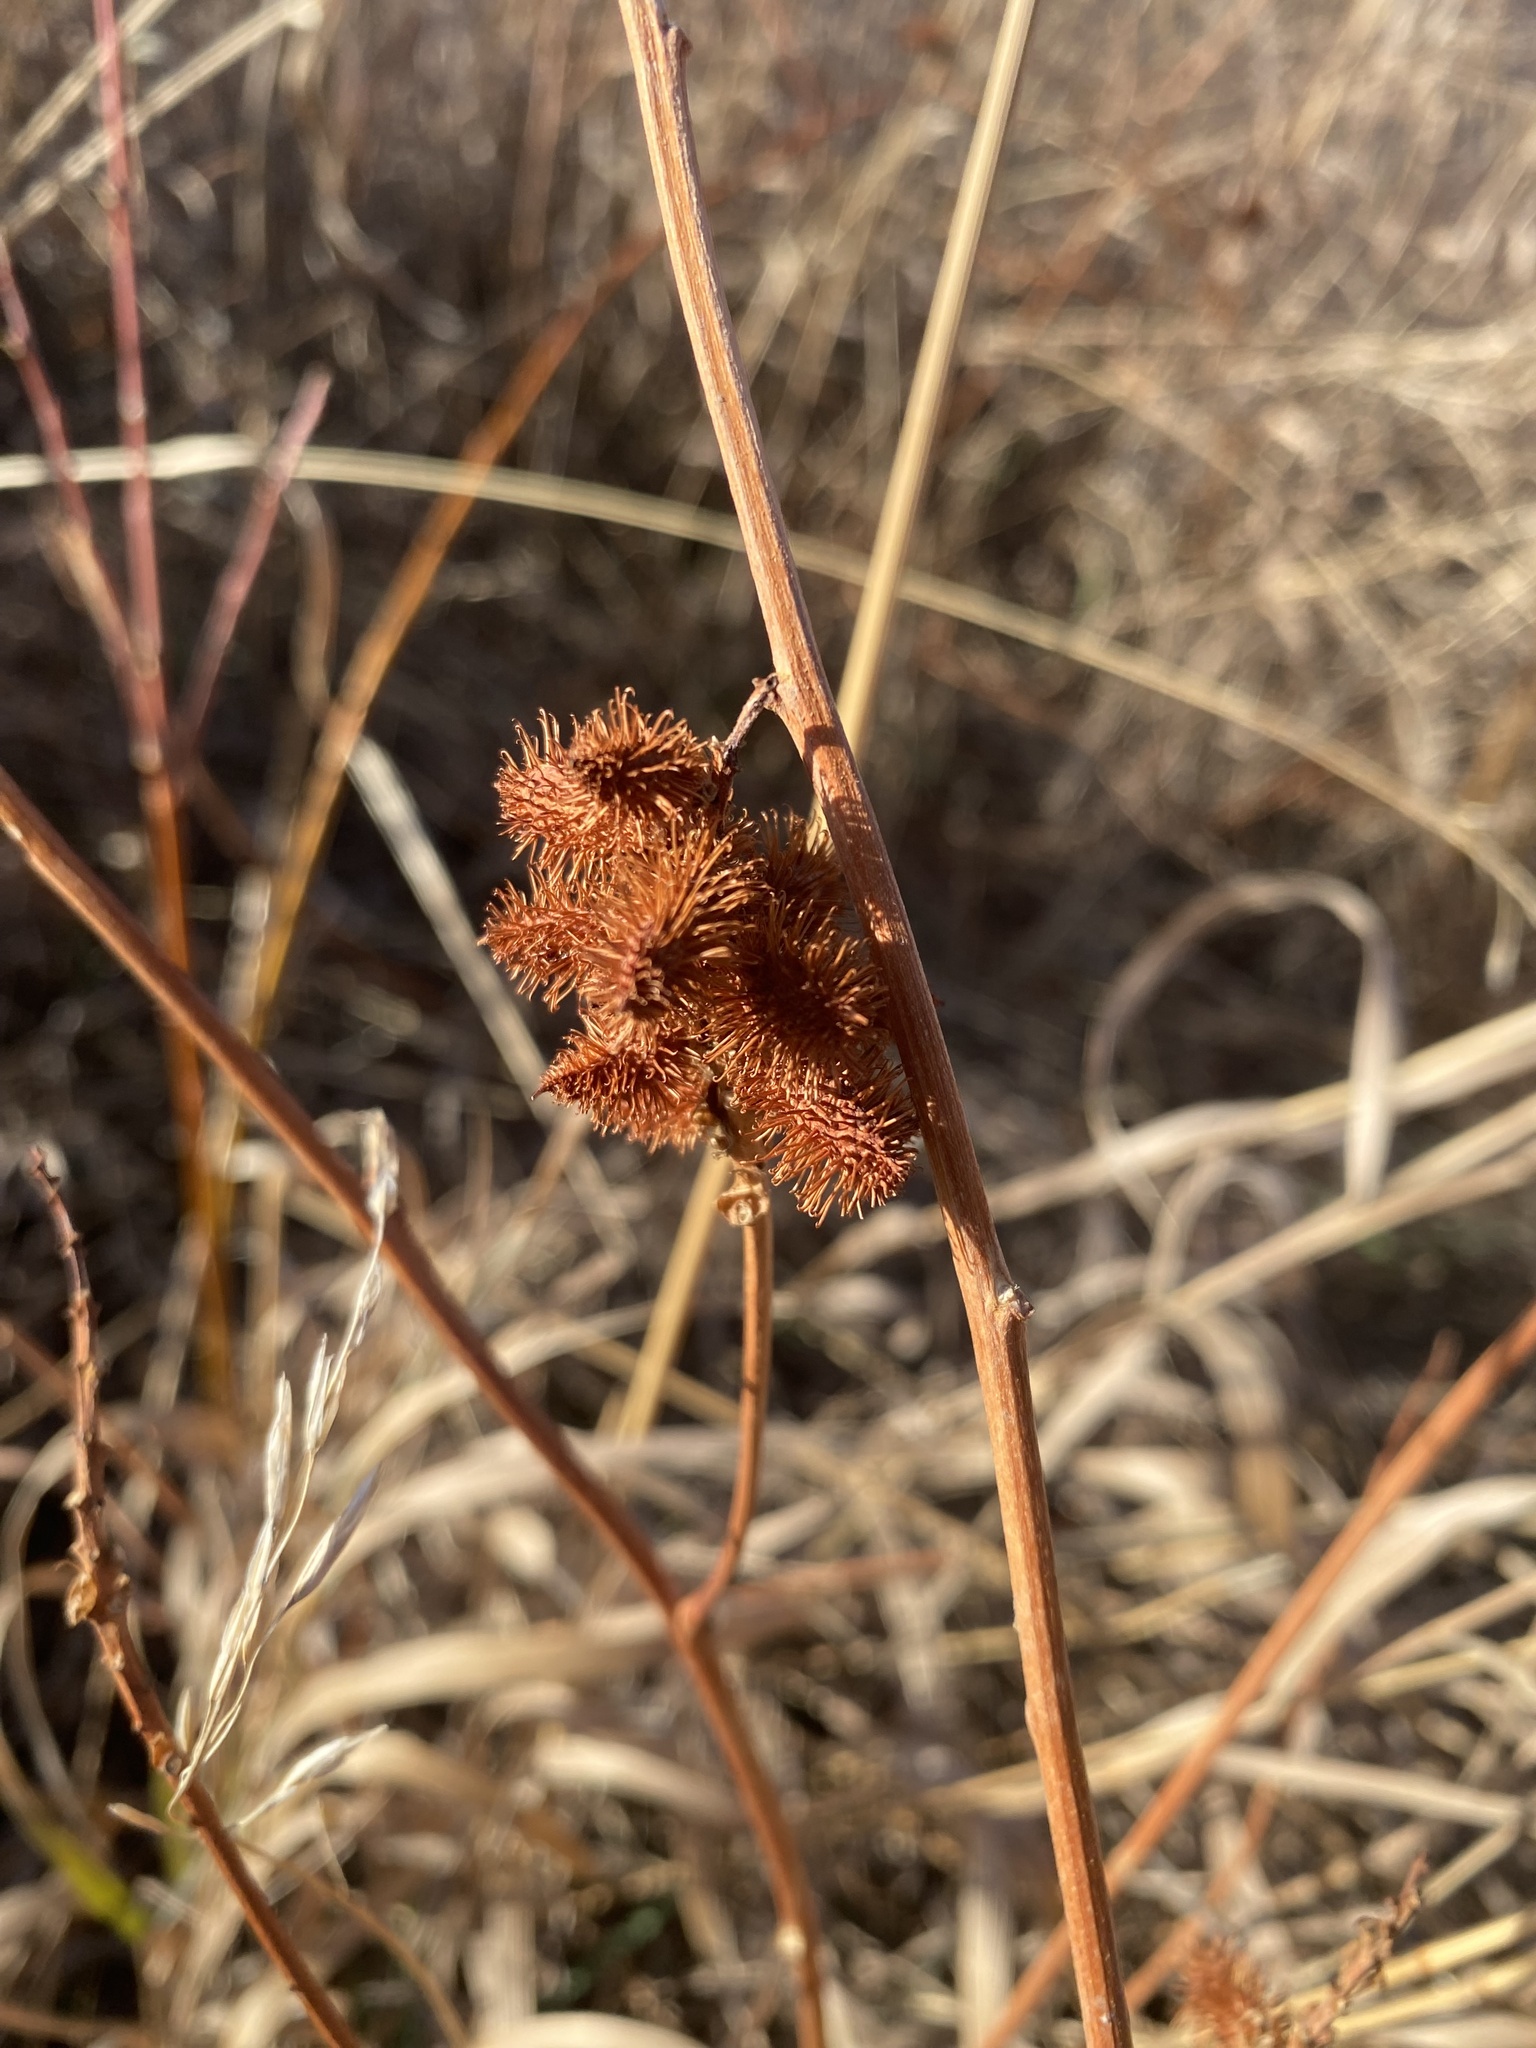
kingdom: Plantae
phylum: Tracheophyta
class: Magnoliopsida
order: Fabales
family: Fabaceae
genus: Glycyrrhiza
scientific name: Glycyrrhiza lepidota
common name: American liquorice
